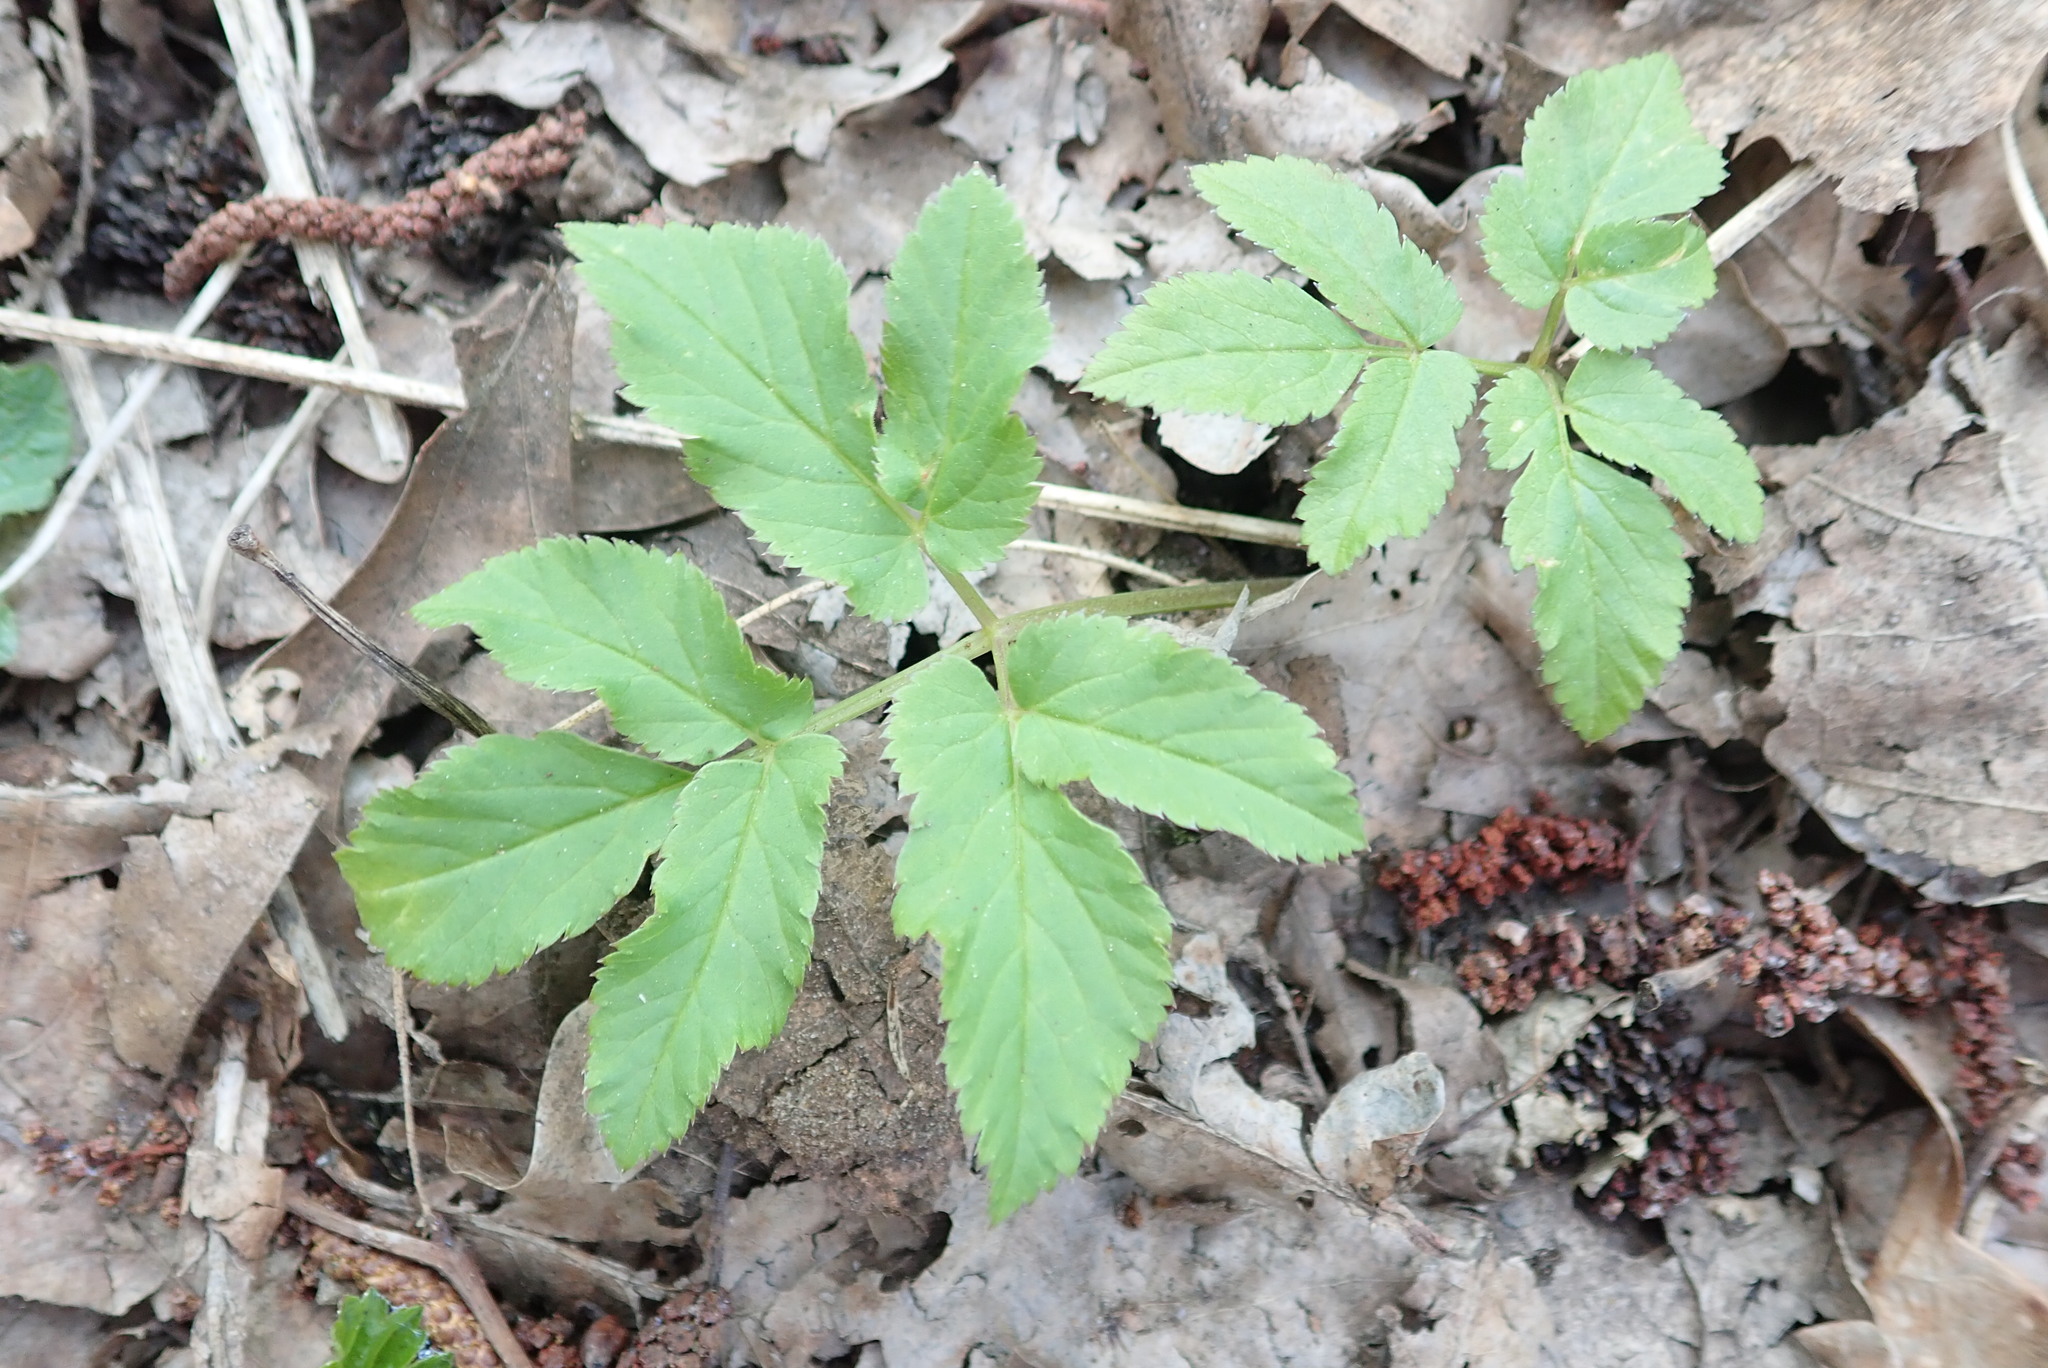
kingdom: Plantae
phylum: Tracheophyta
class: Magnoliopsida
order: Apiales
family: Apiaceae
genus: Aegopodium
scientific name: Aegopodium podagraria
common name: Ground-elder
